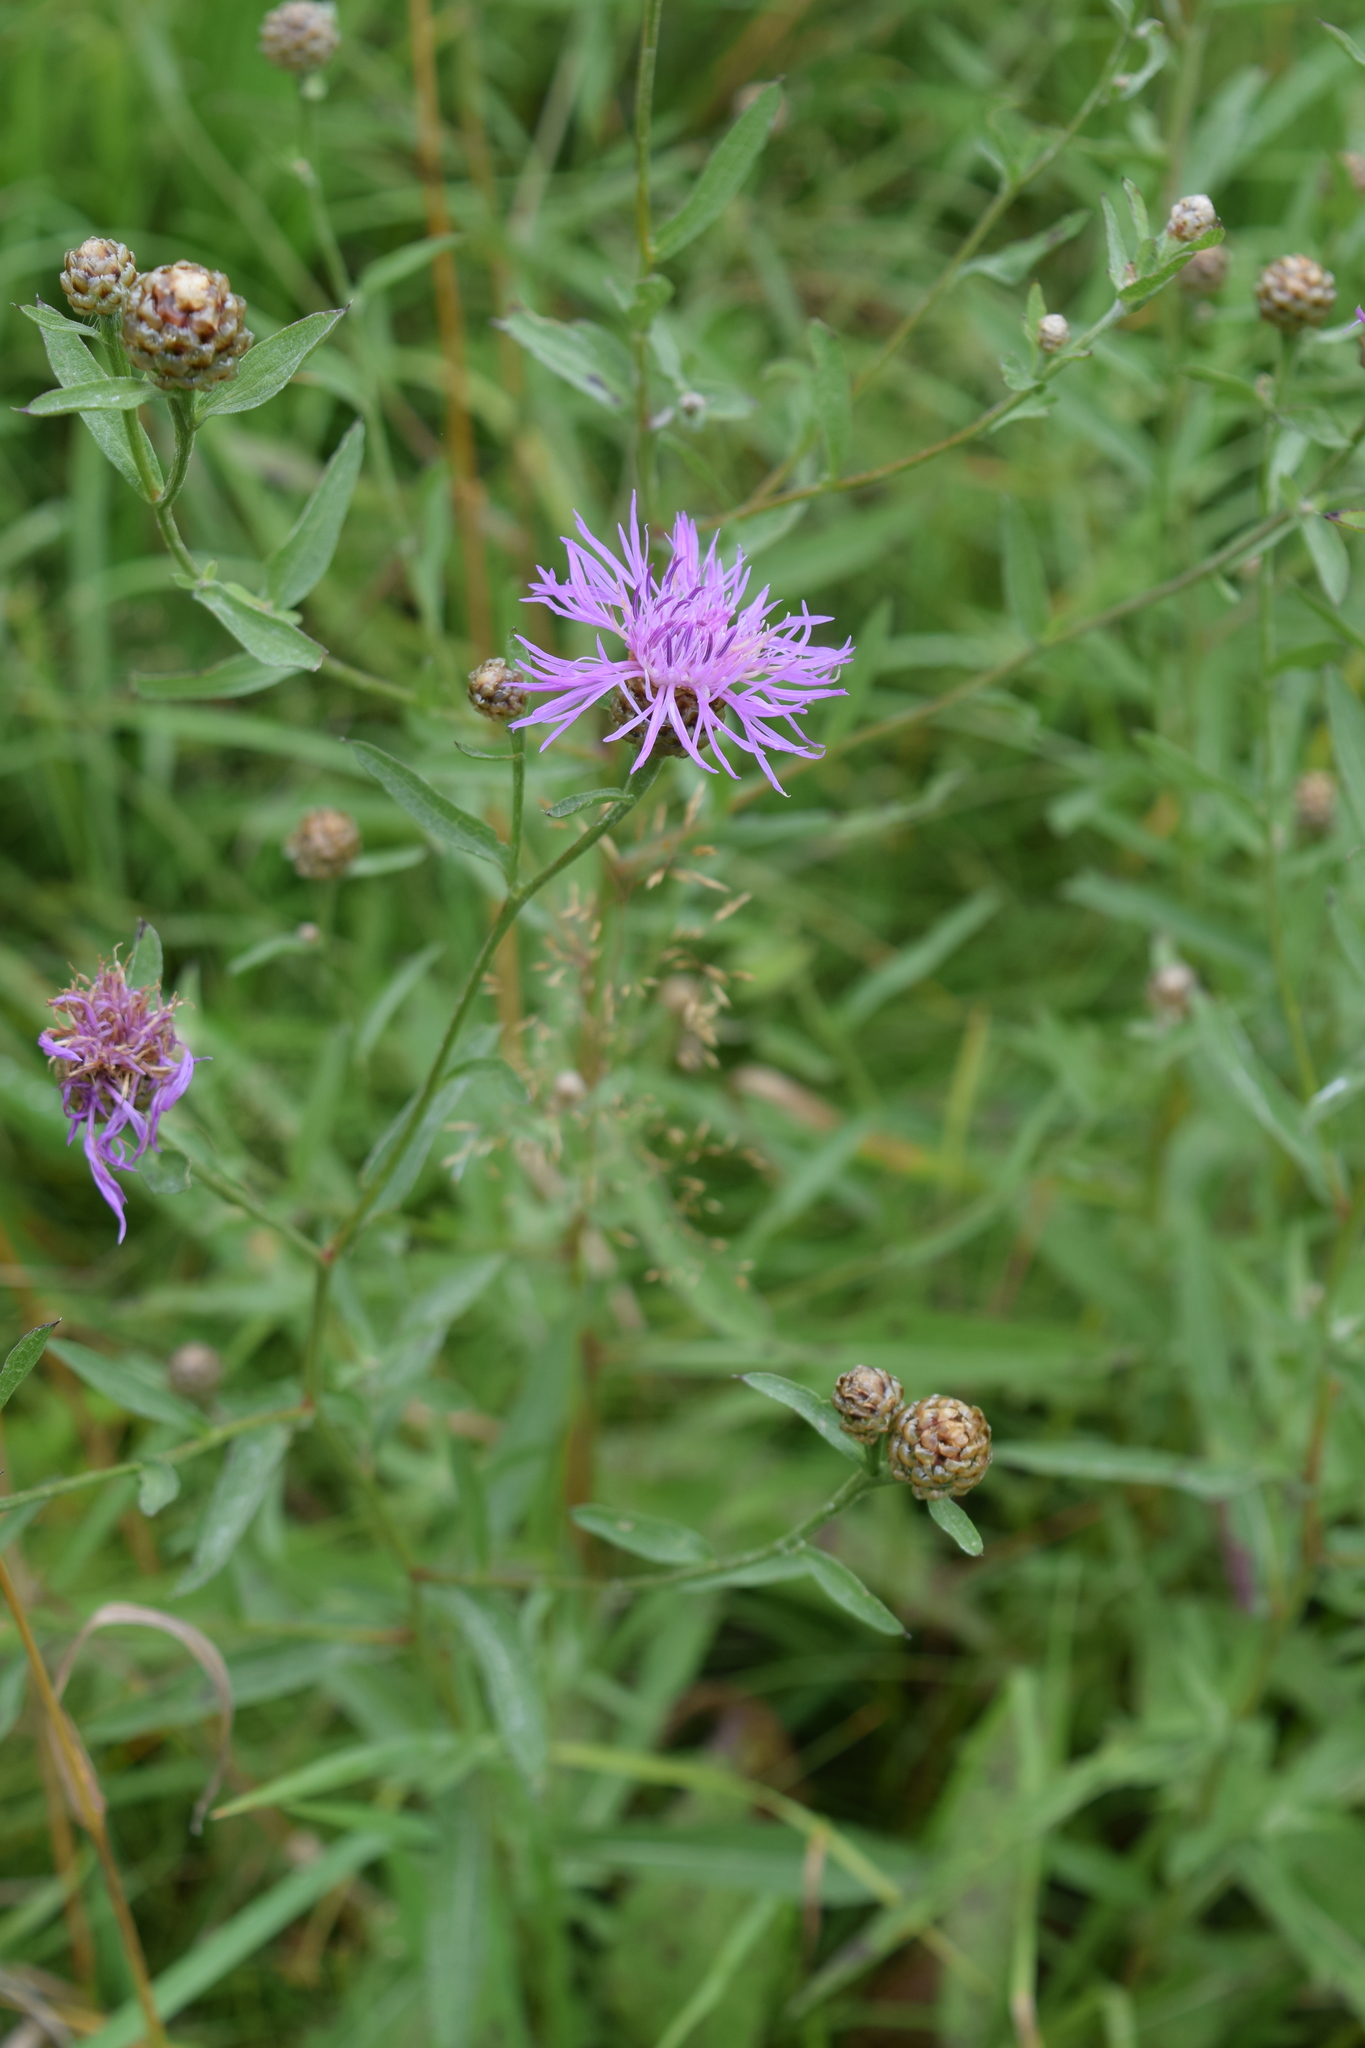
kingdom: Plantae
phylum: Tracheophyta
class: Magnoliopsida
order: Asterales
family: Asteraceae
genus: Centaurea
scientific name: Centaurea jacea
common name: Brown knapweed
